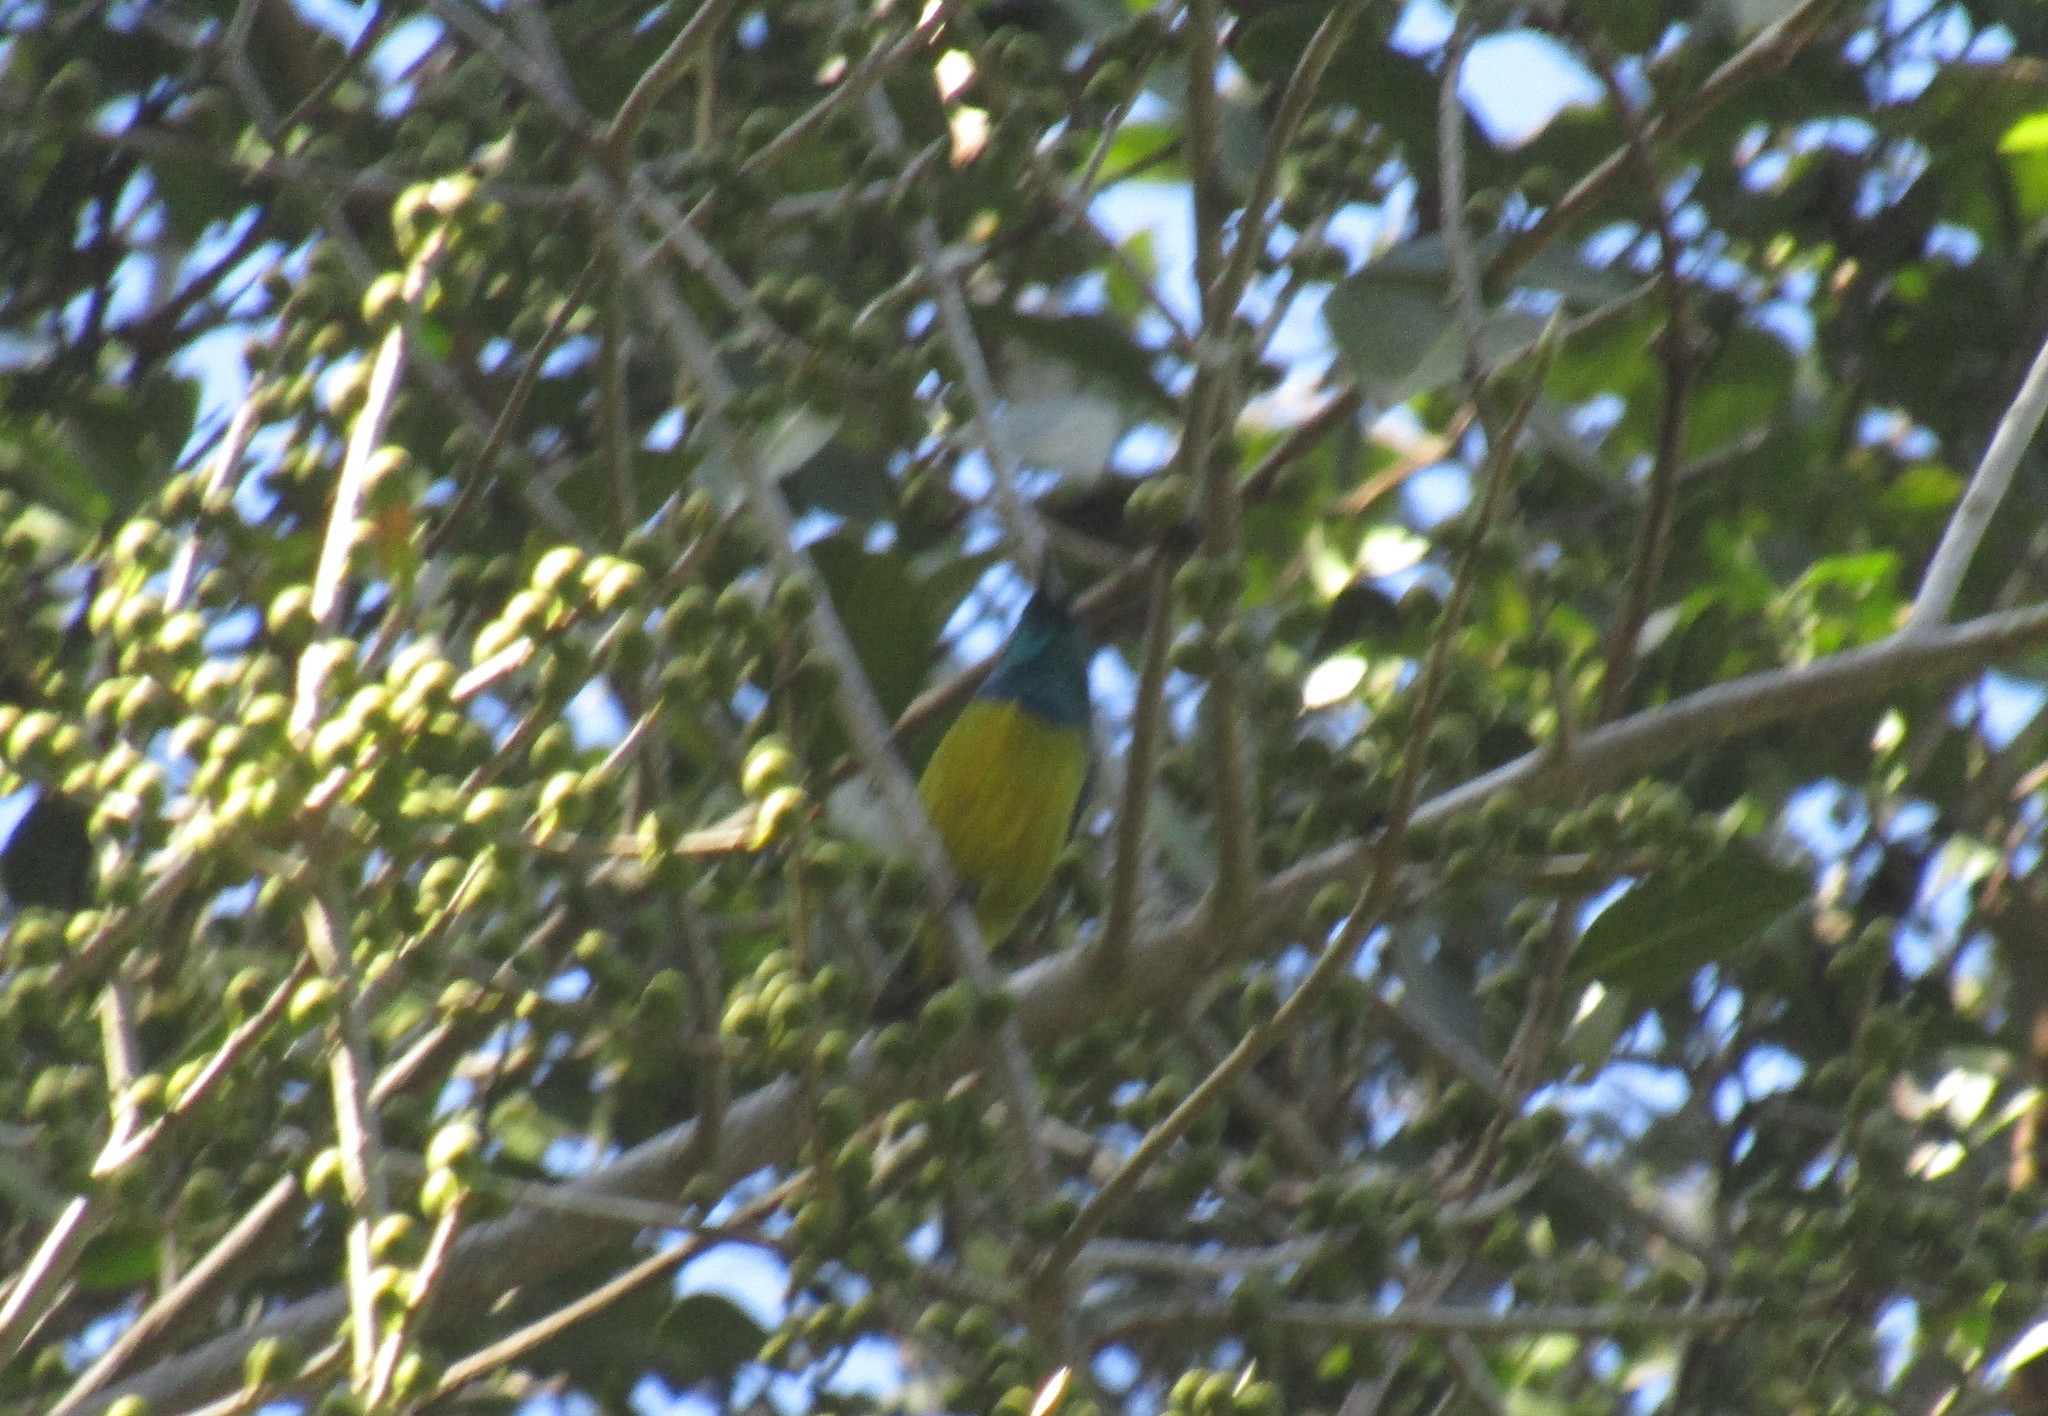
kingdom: Animalia
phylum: Chordata
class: Aves
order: Passeriformes
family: Nectariniidae
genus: Hedydipna
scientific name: Hedydipna collaris
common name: Collared sunbird
